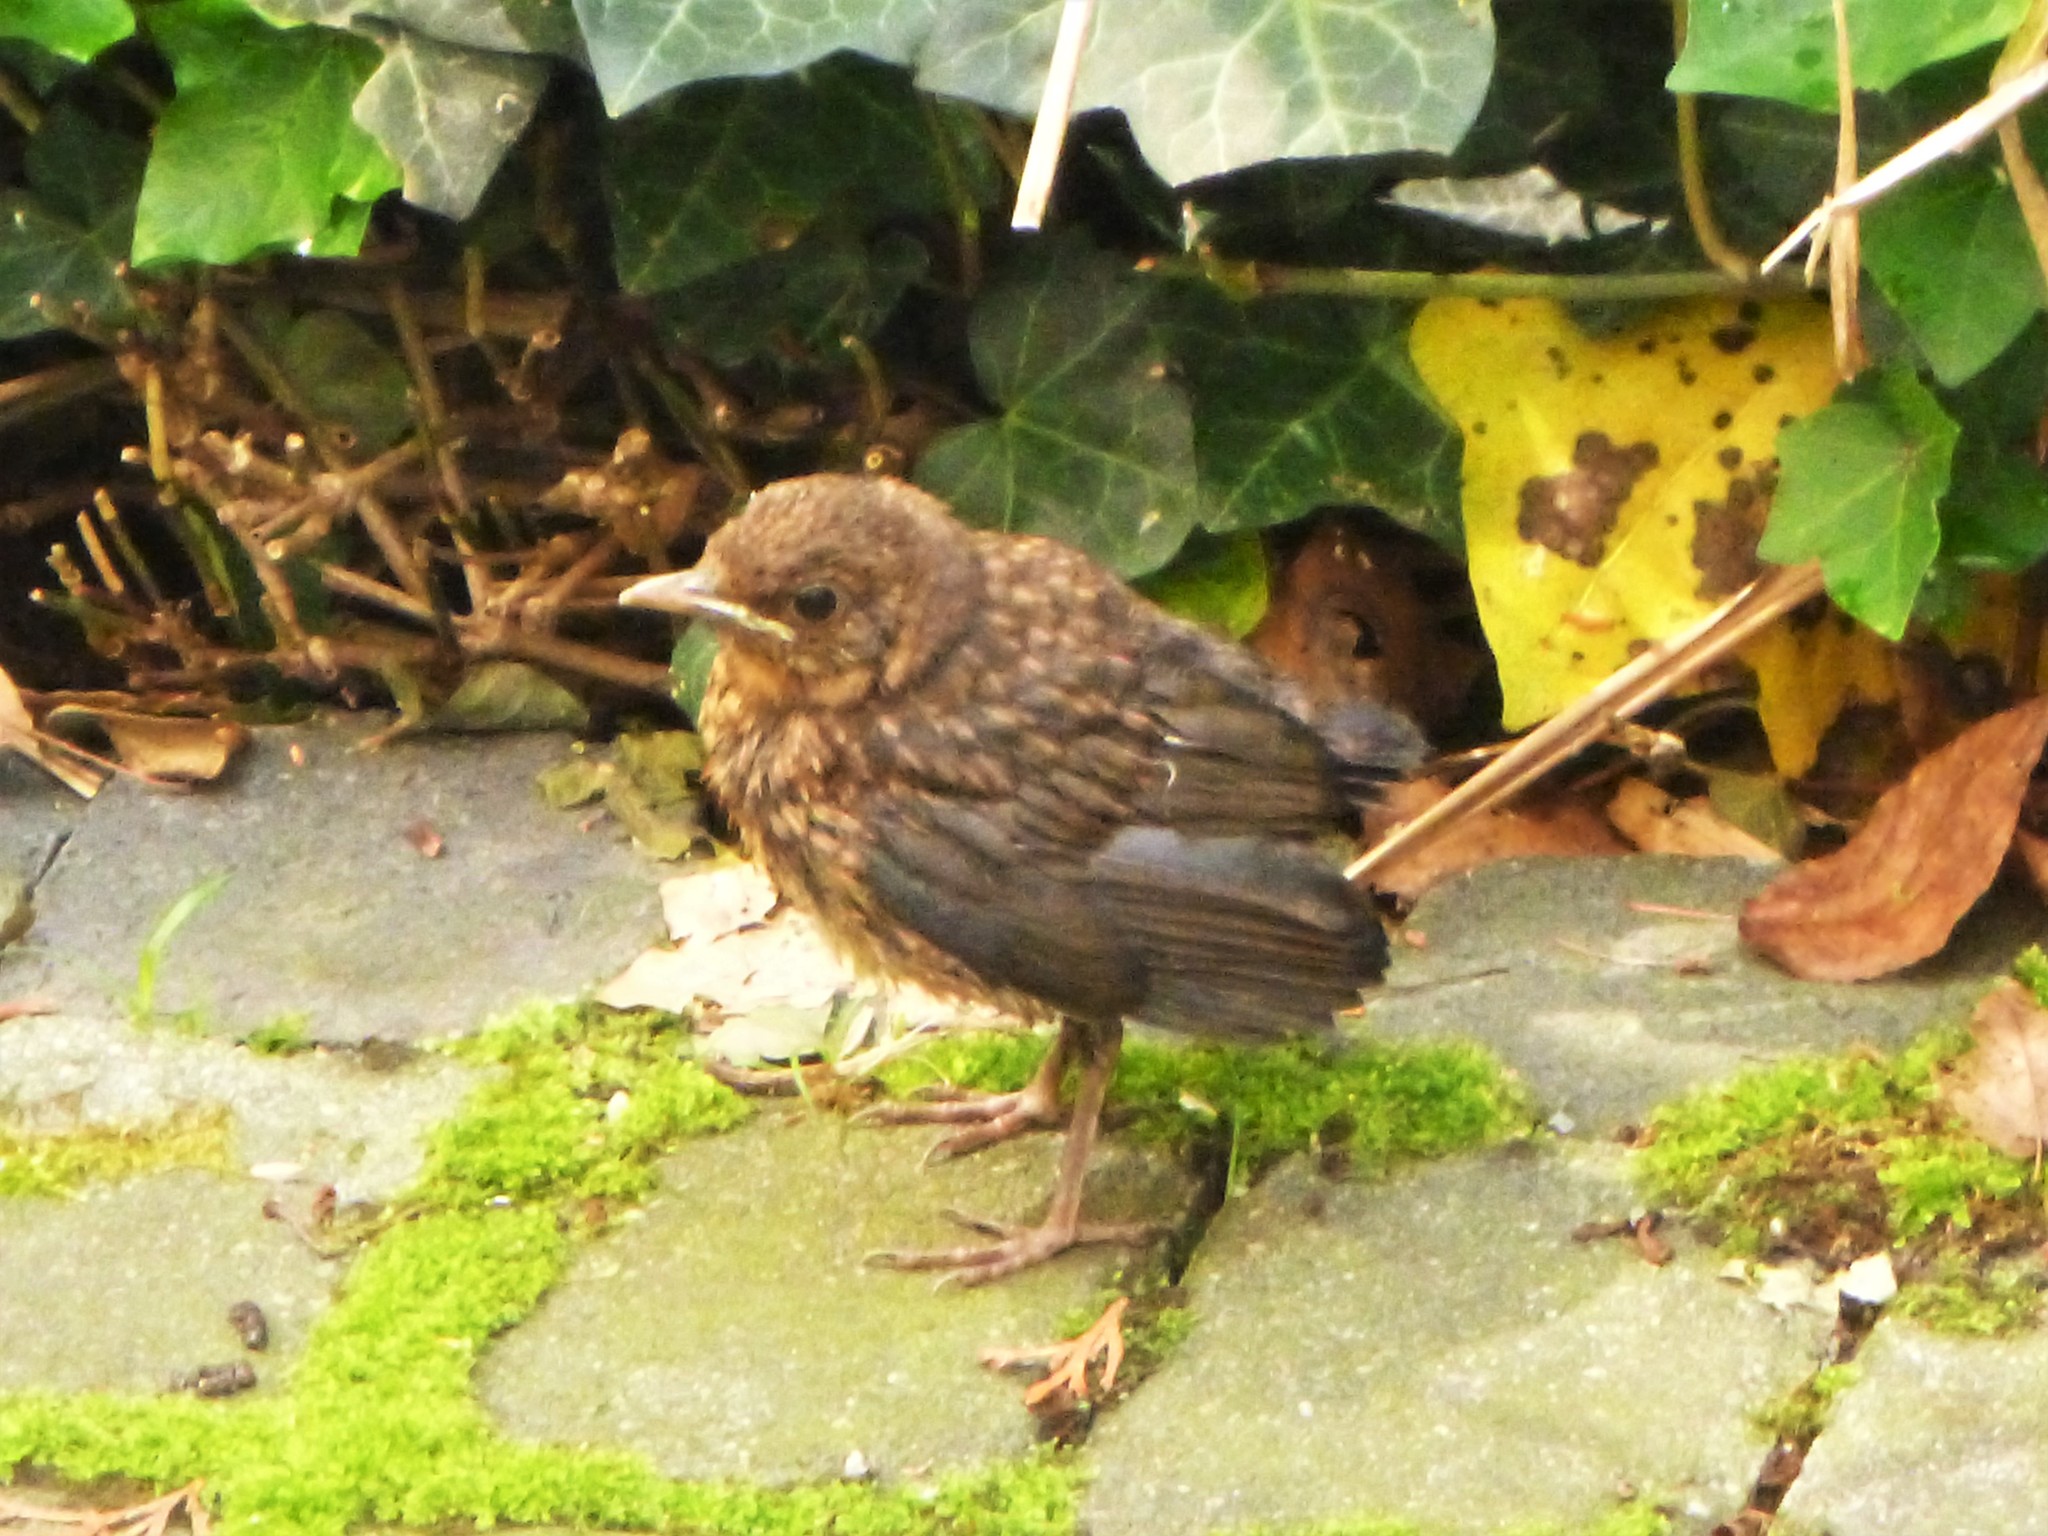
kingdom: Animalia
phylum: Chordata
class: Aves
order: Passeriformes
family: Turdidae
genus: Turdus
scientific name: Turdus merula
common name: Common blackbird
